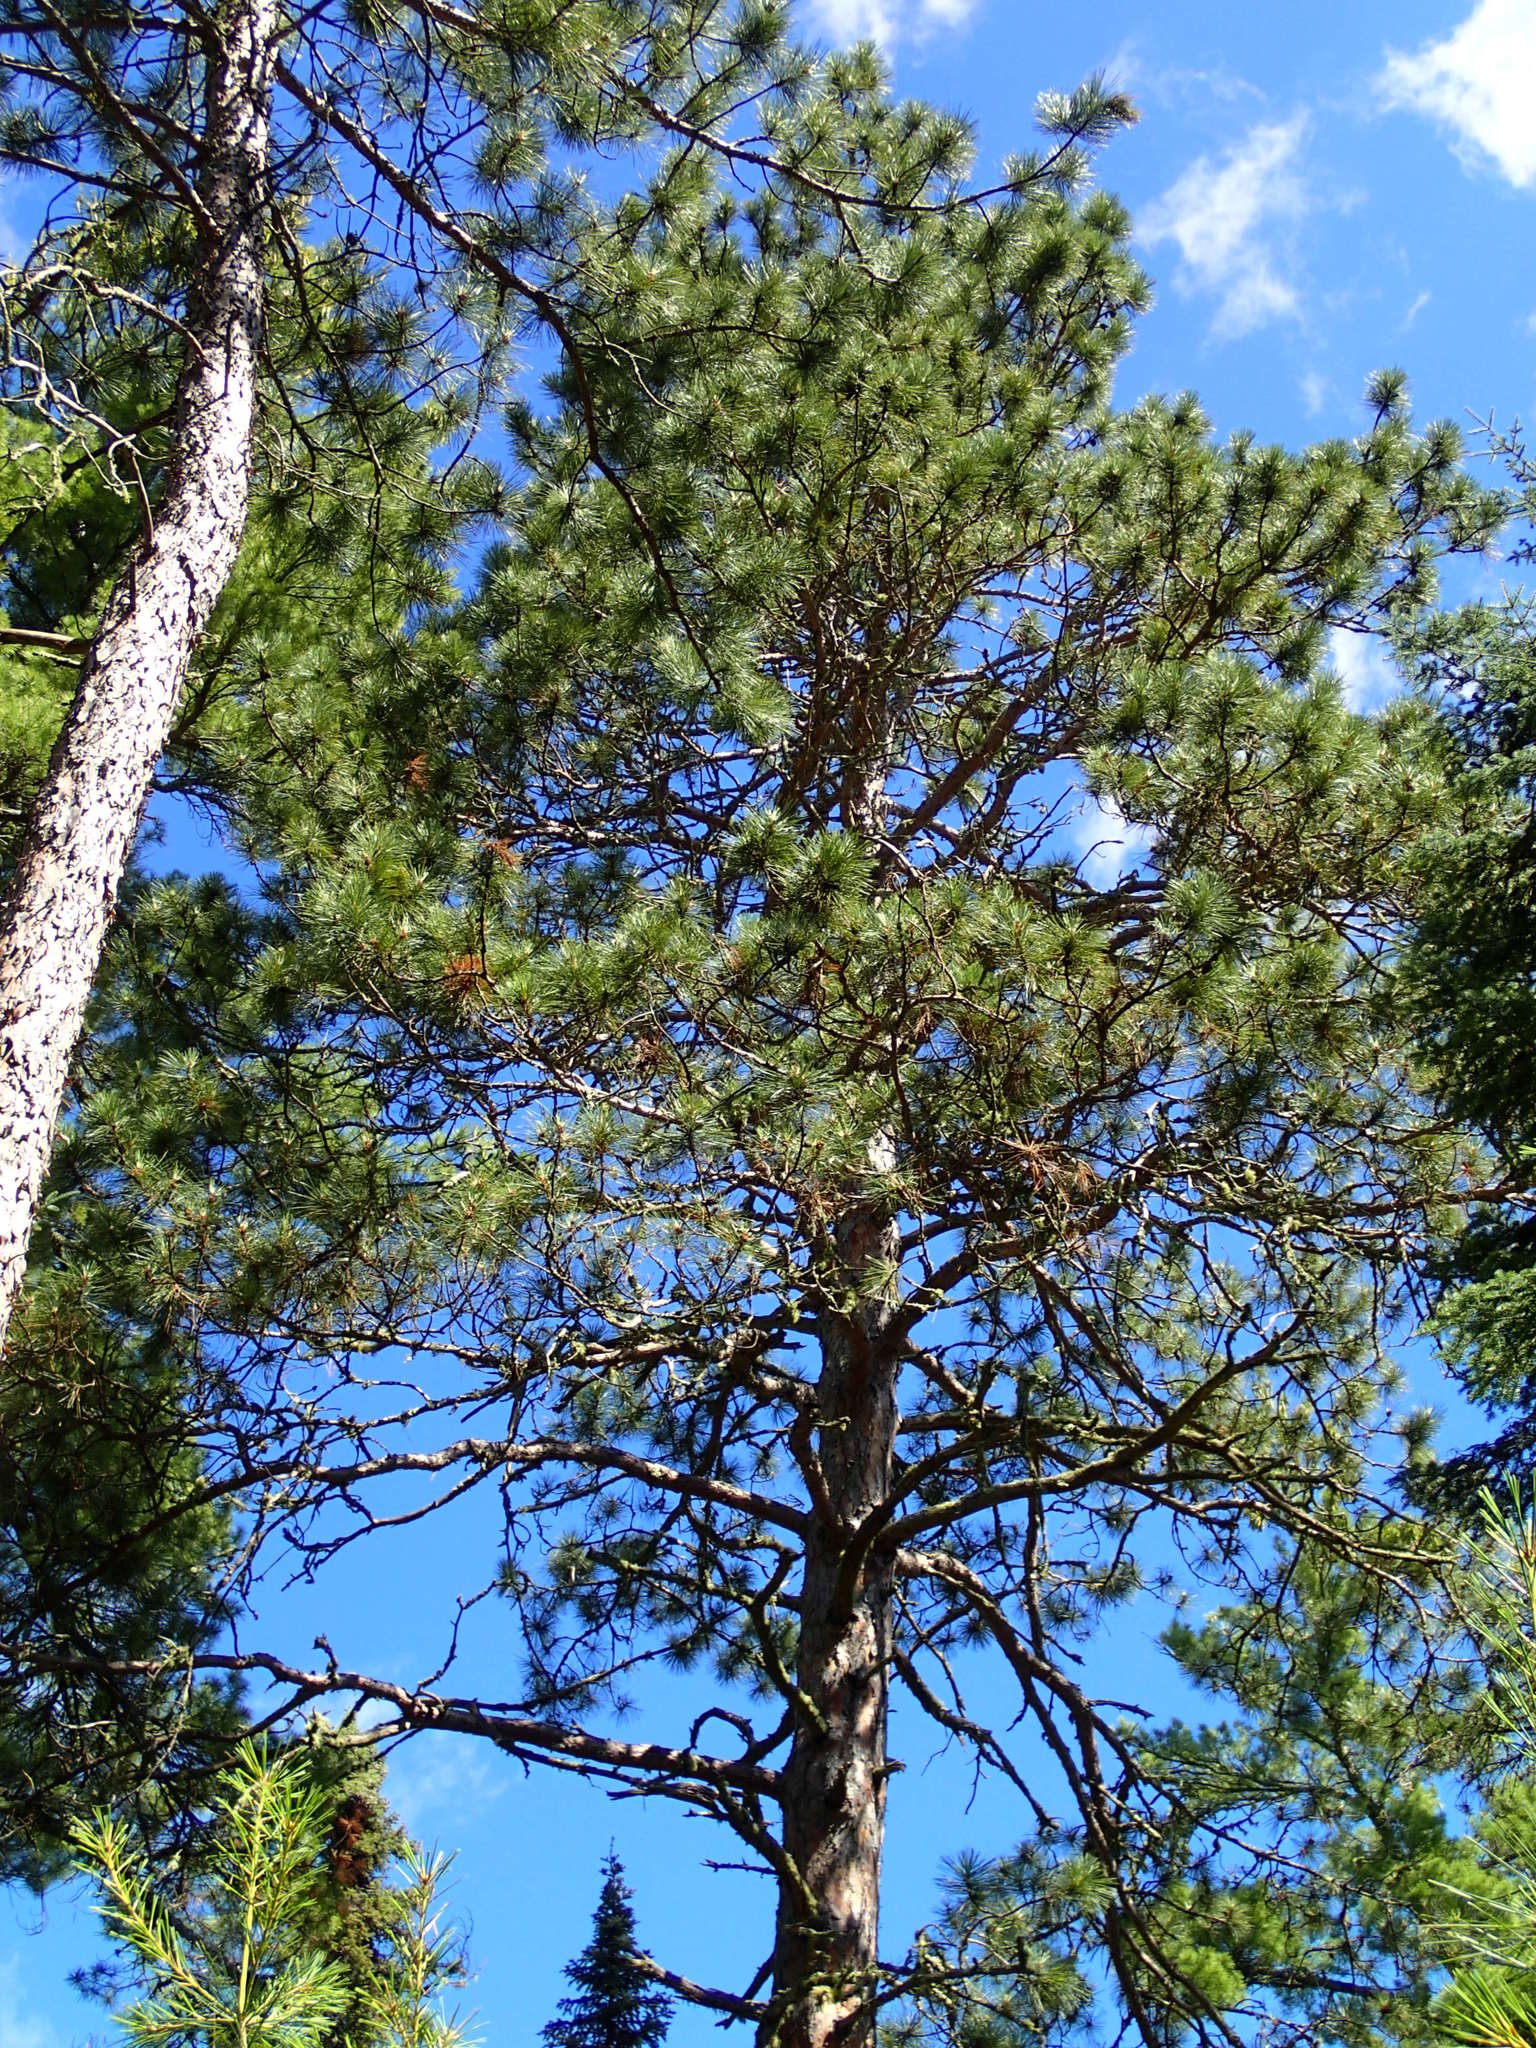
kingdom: Plantae
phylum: Tracheophyta
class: Pinopsida
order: Pinales
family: Pinaceae
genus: Pinus
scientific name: Pinus resinosa
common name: Norway pine
